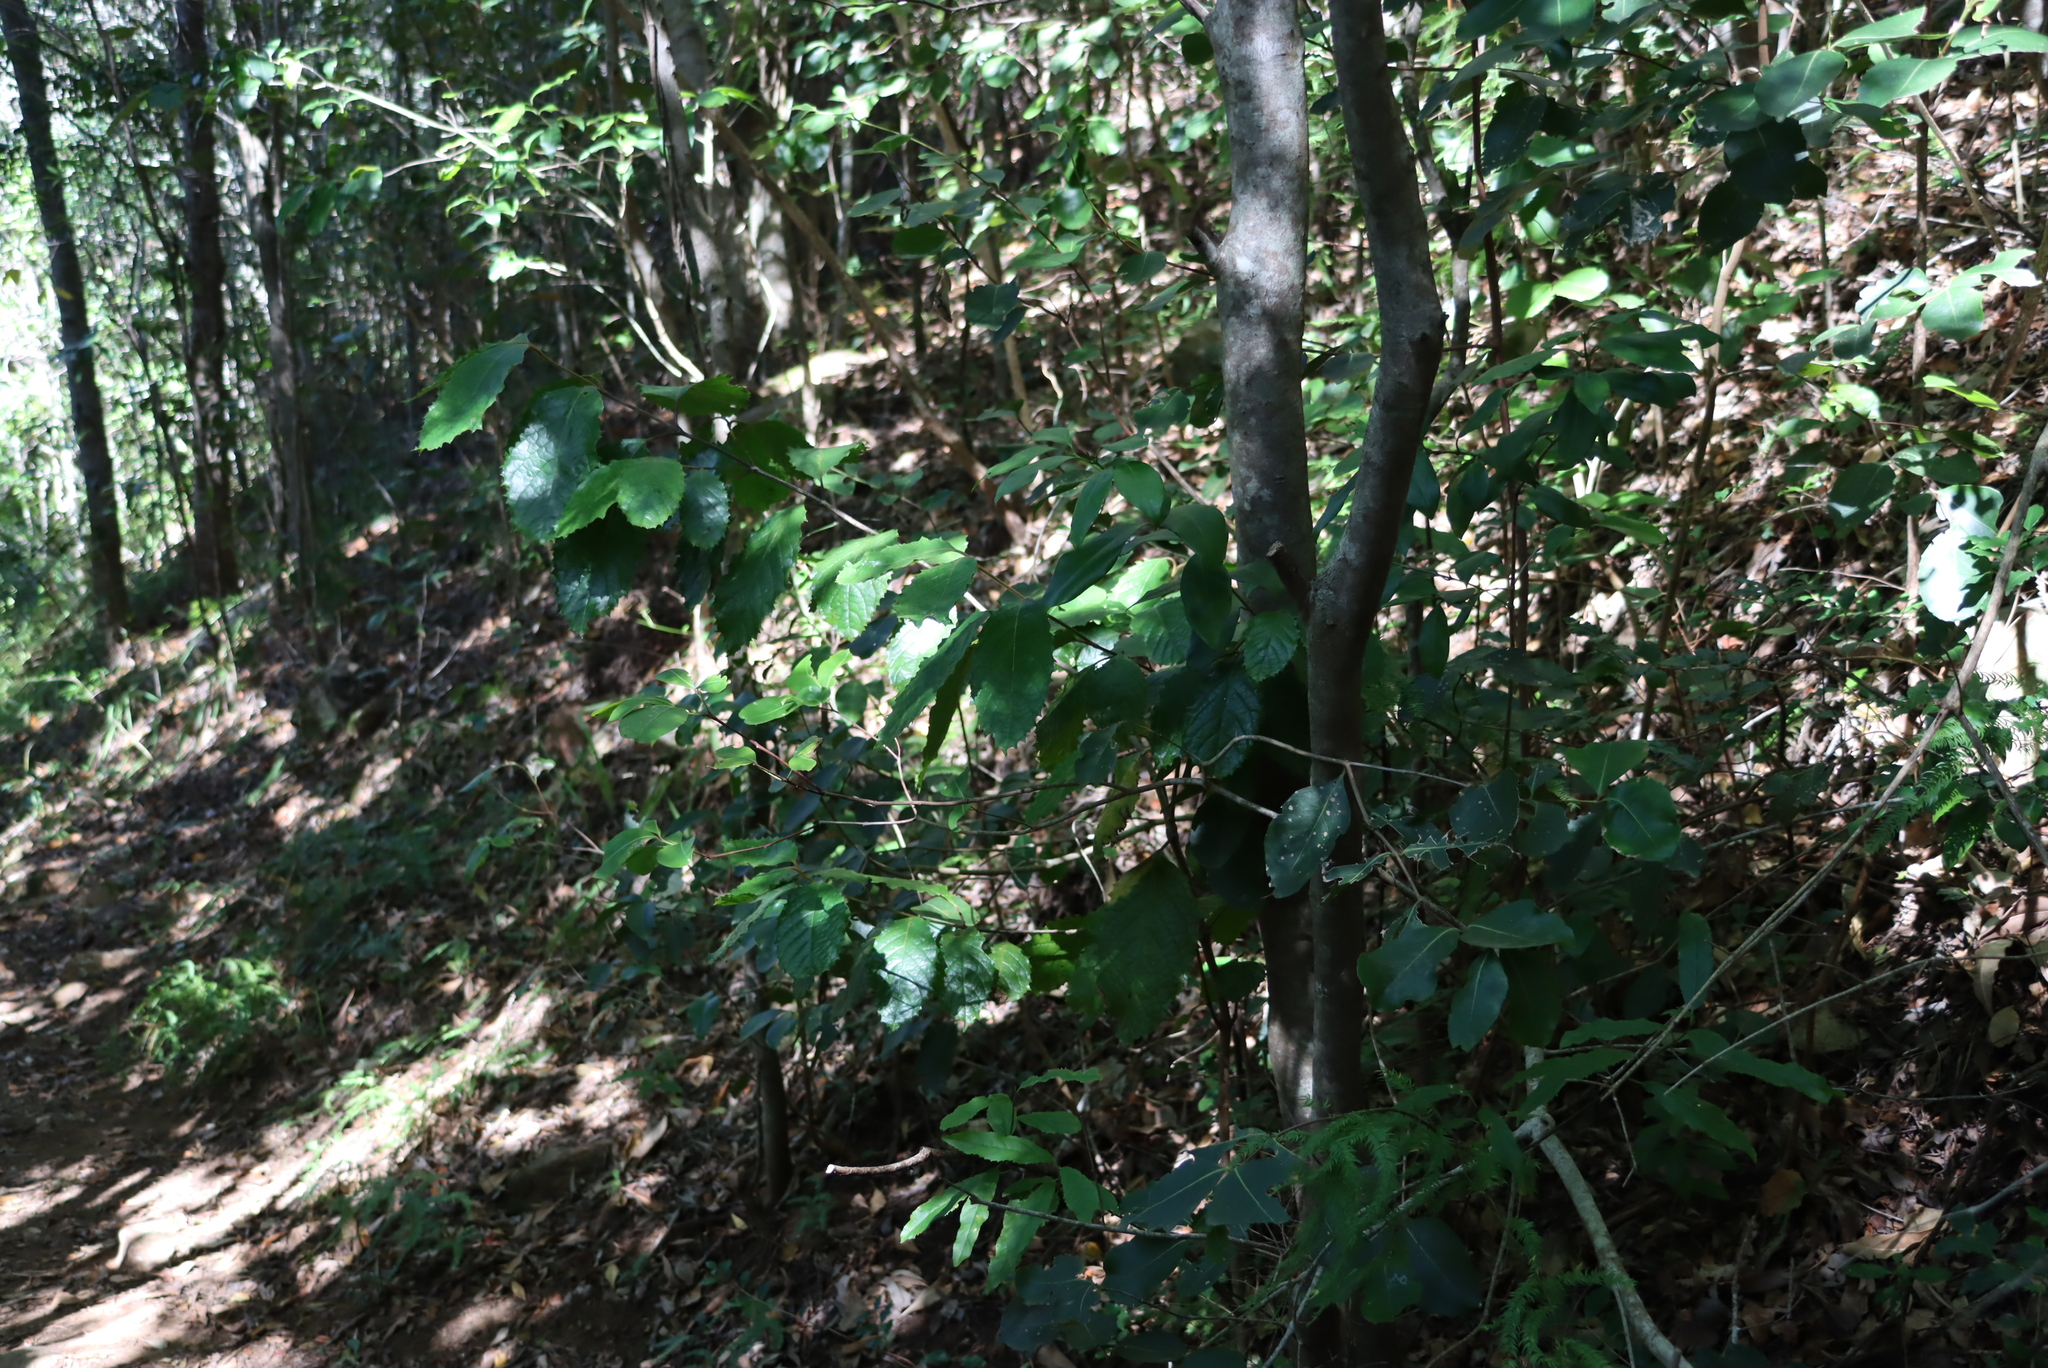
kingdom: Plantae
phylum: Tracheophyta
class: Magnoliopsida
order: Celastrales
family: Celastraceae
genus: Cassine
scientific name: Cassine peragua
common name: Cape saffron
